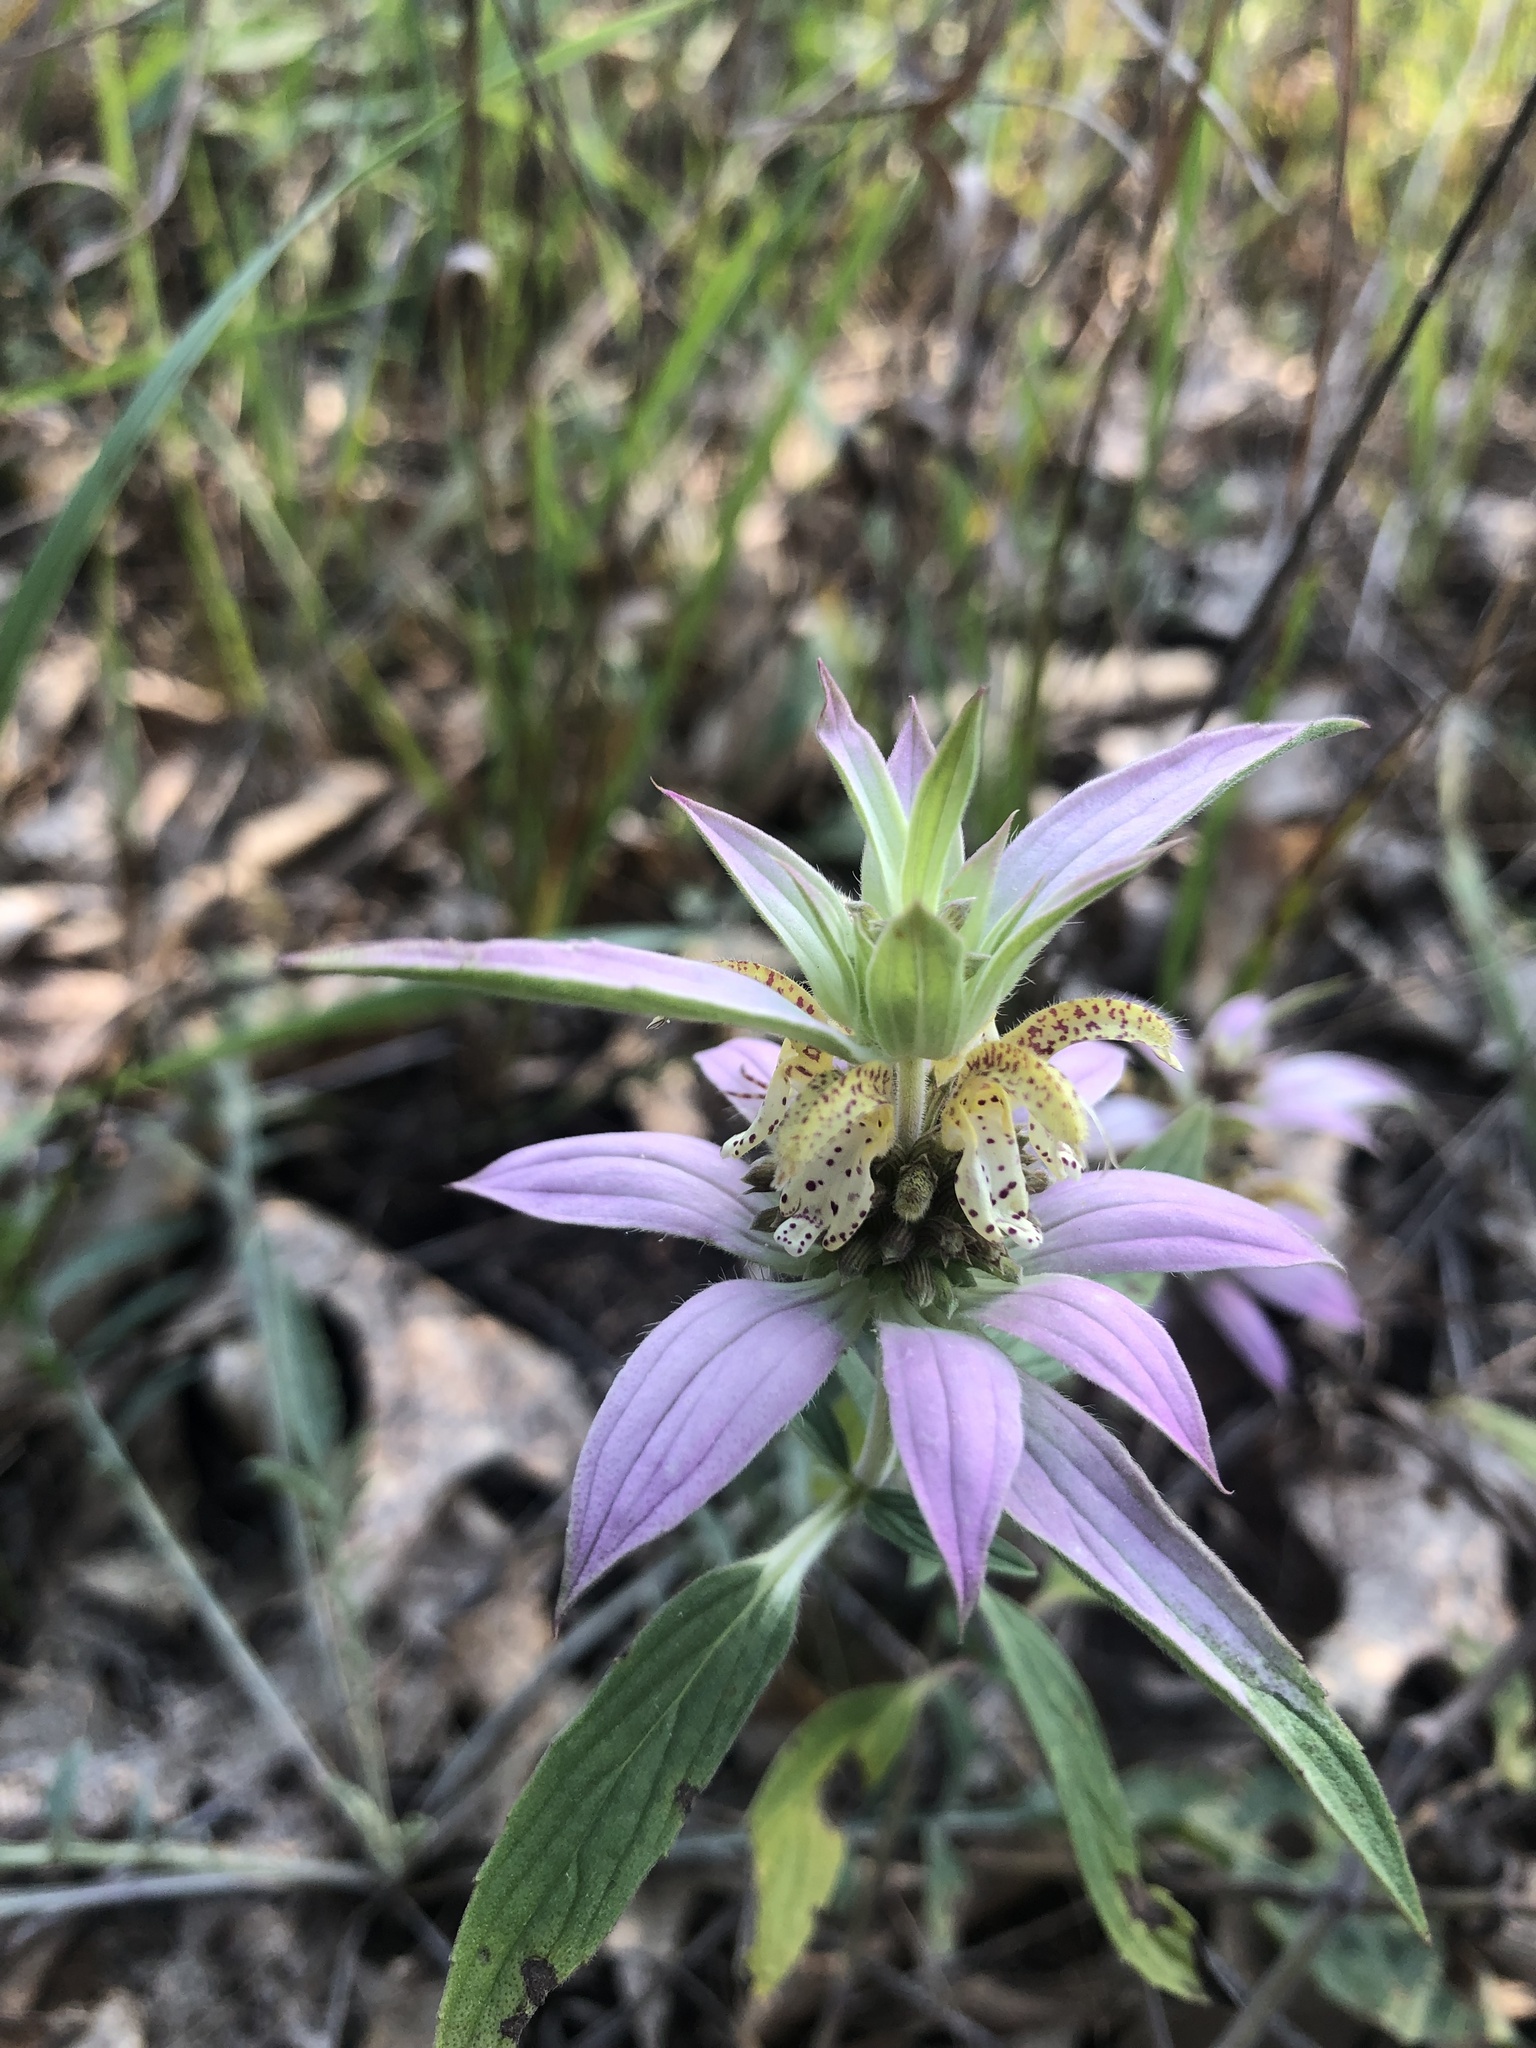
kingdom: Plantae
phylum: Tracheophyta
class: Magnoliopsida
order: Lamiales
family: Lamiaceae
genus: Monarda
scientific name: Monarda punctata
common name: Dotted monarda
